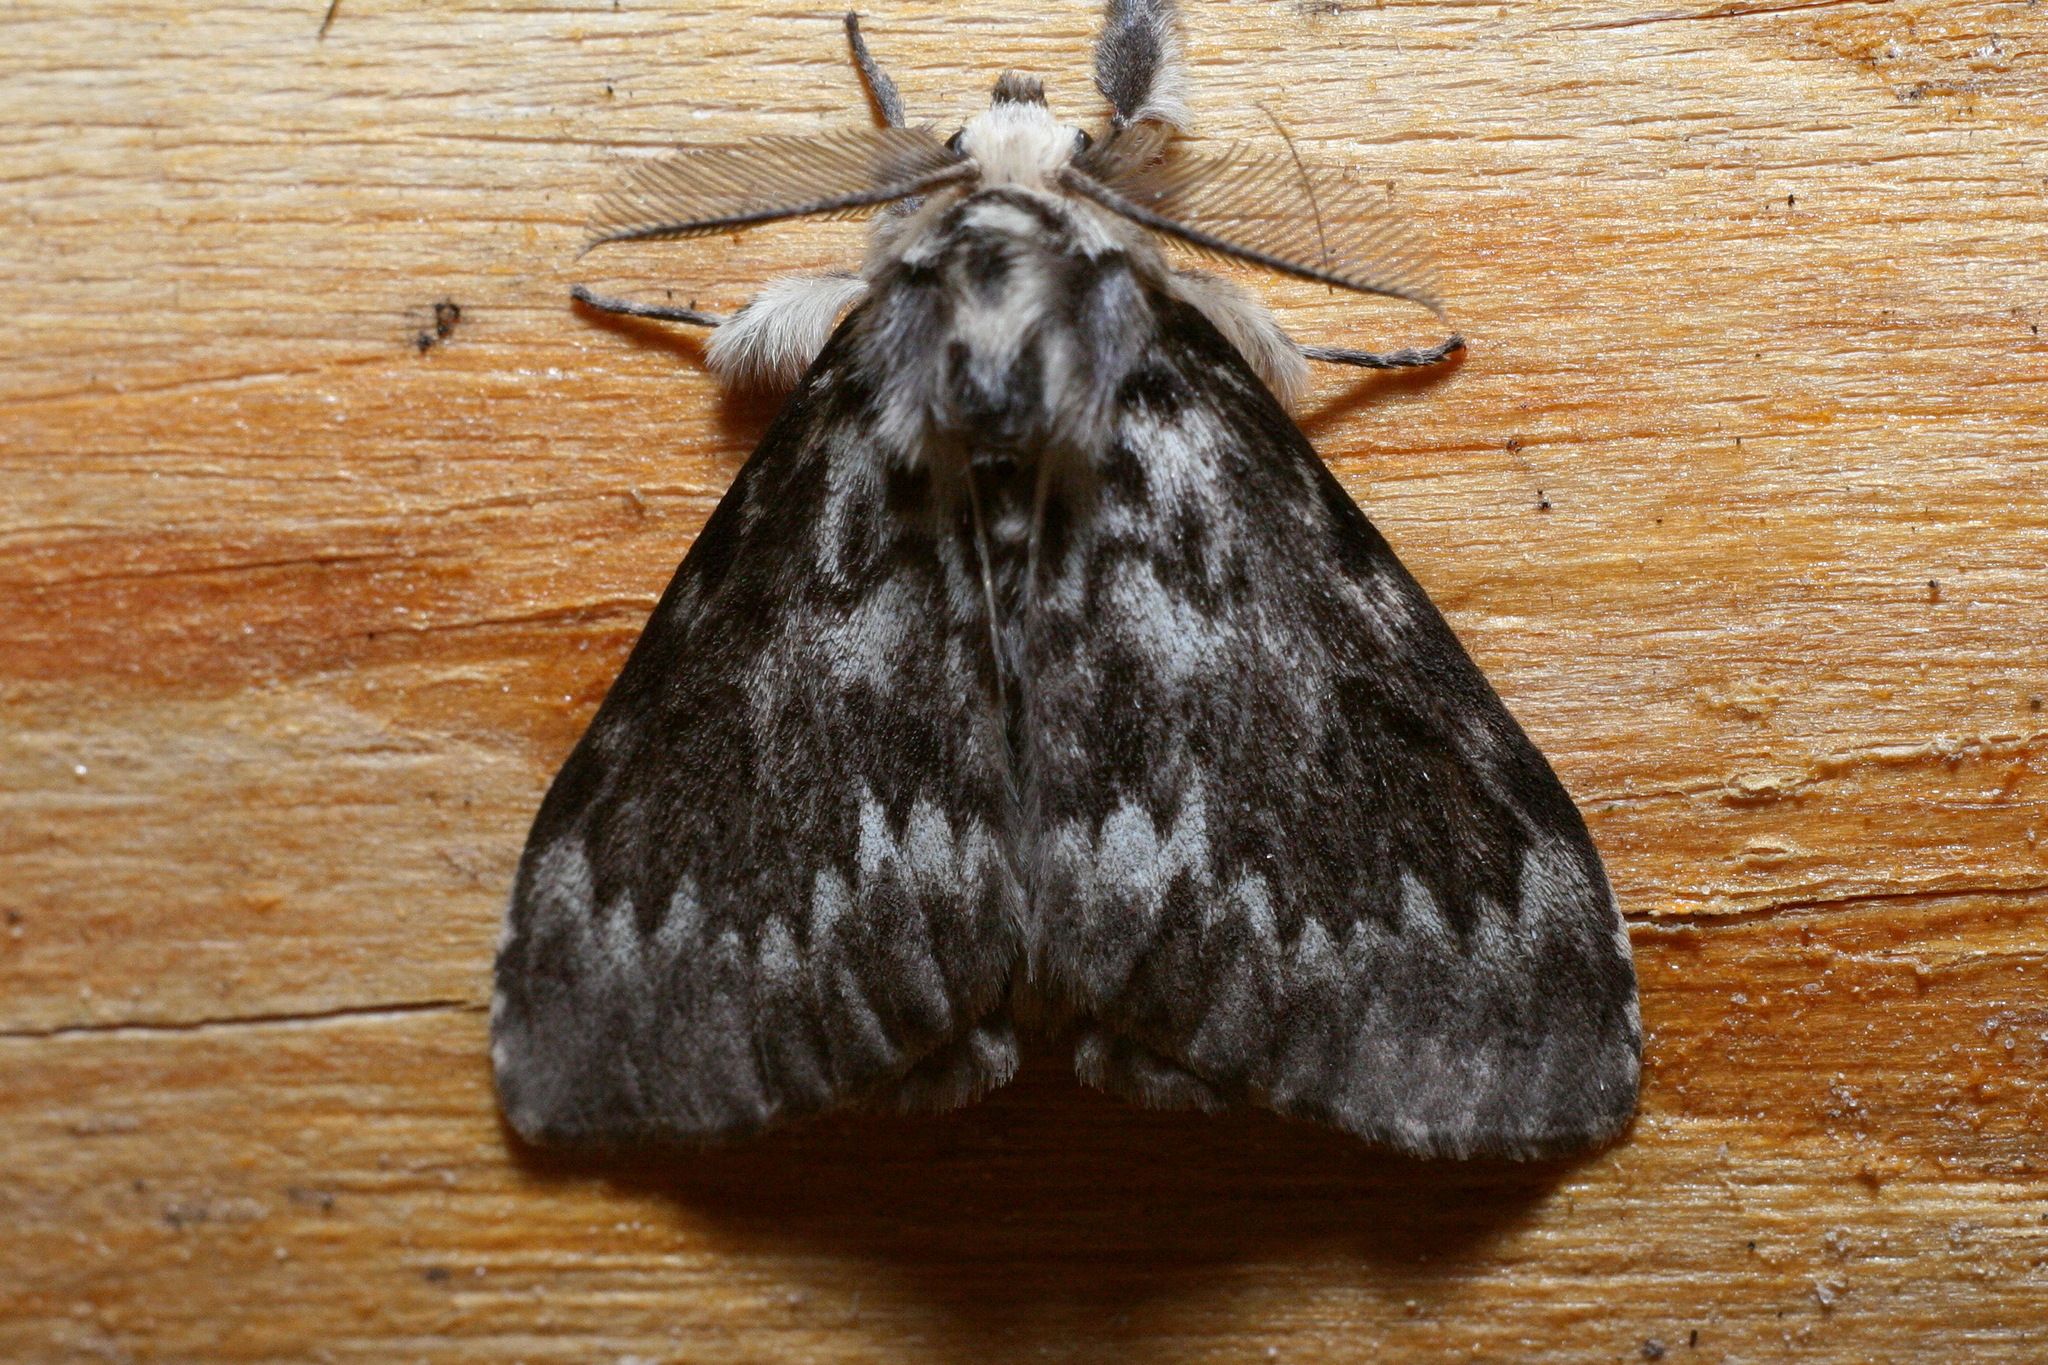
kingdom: Animalia
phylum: Arthropoda
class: Insecta
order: Lepidoptera
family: Erebidae
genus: Lymantria
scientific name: Lymantria monacha
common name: Black arches
